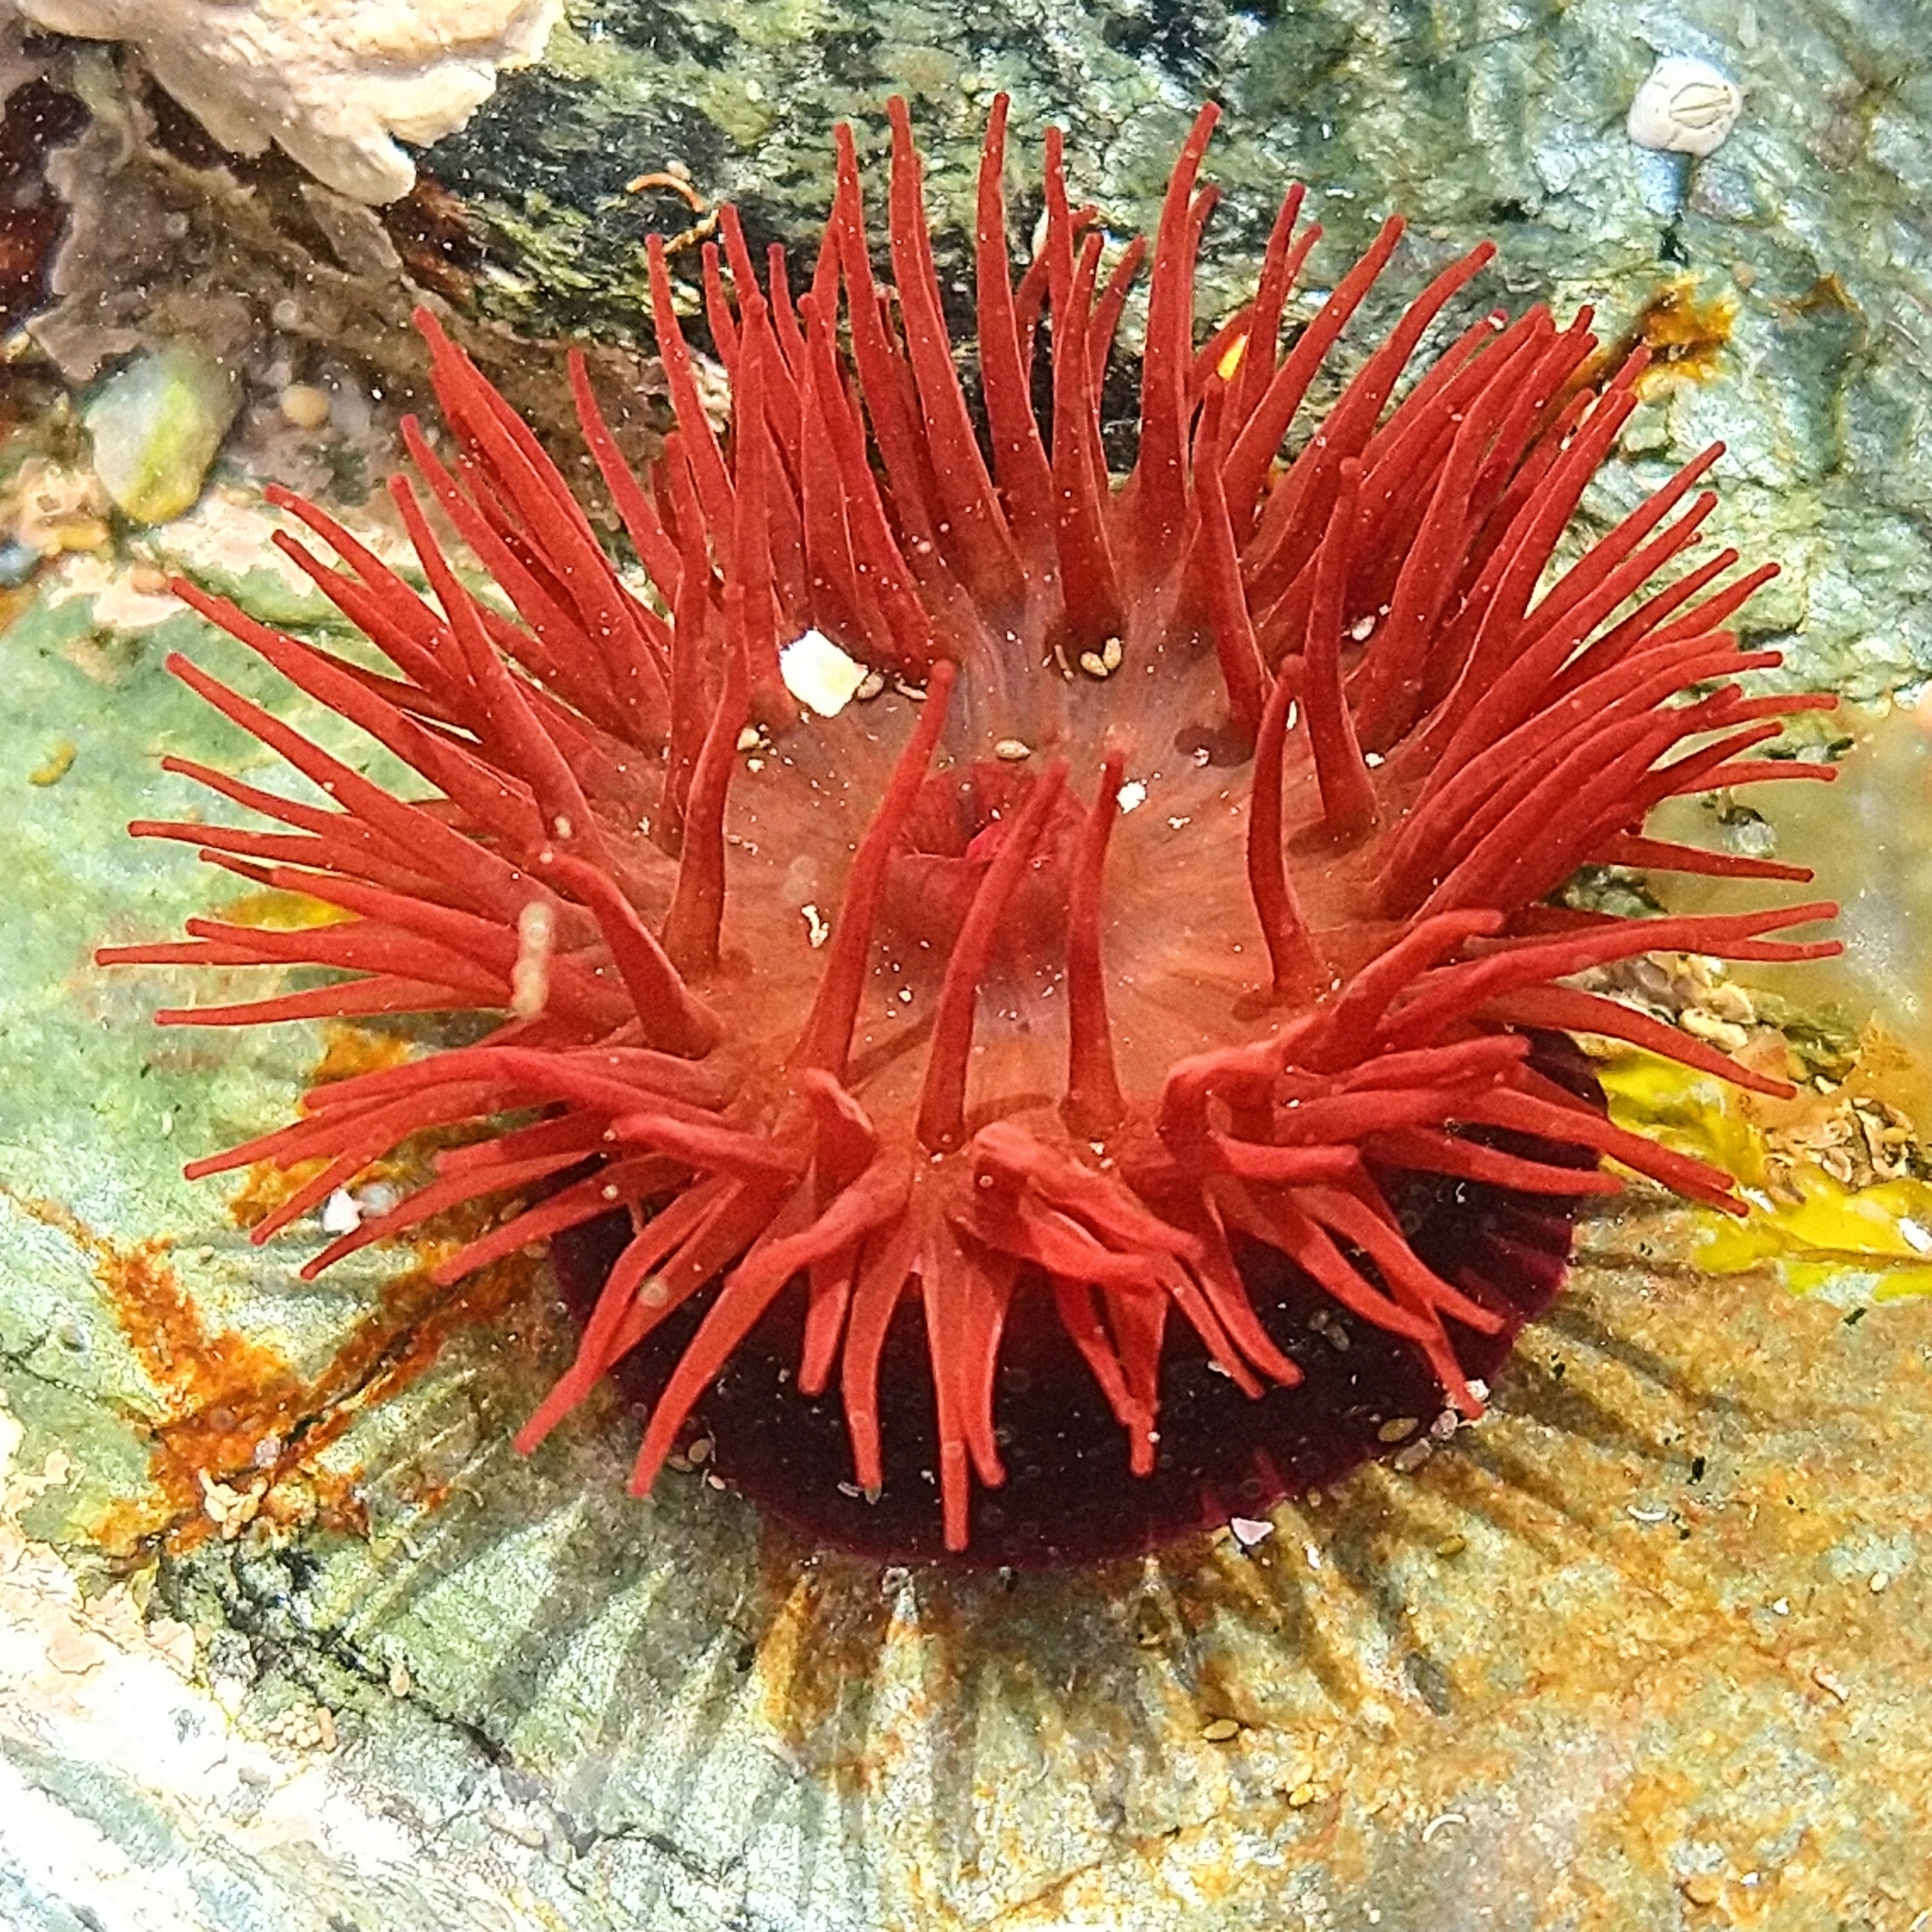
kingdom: Animalia
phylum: Cnidaria
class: Anthozoa
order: Actiniaria
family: Actiniidae
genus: Actinia
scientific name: Actinia equina
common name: Beadlet anemone
